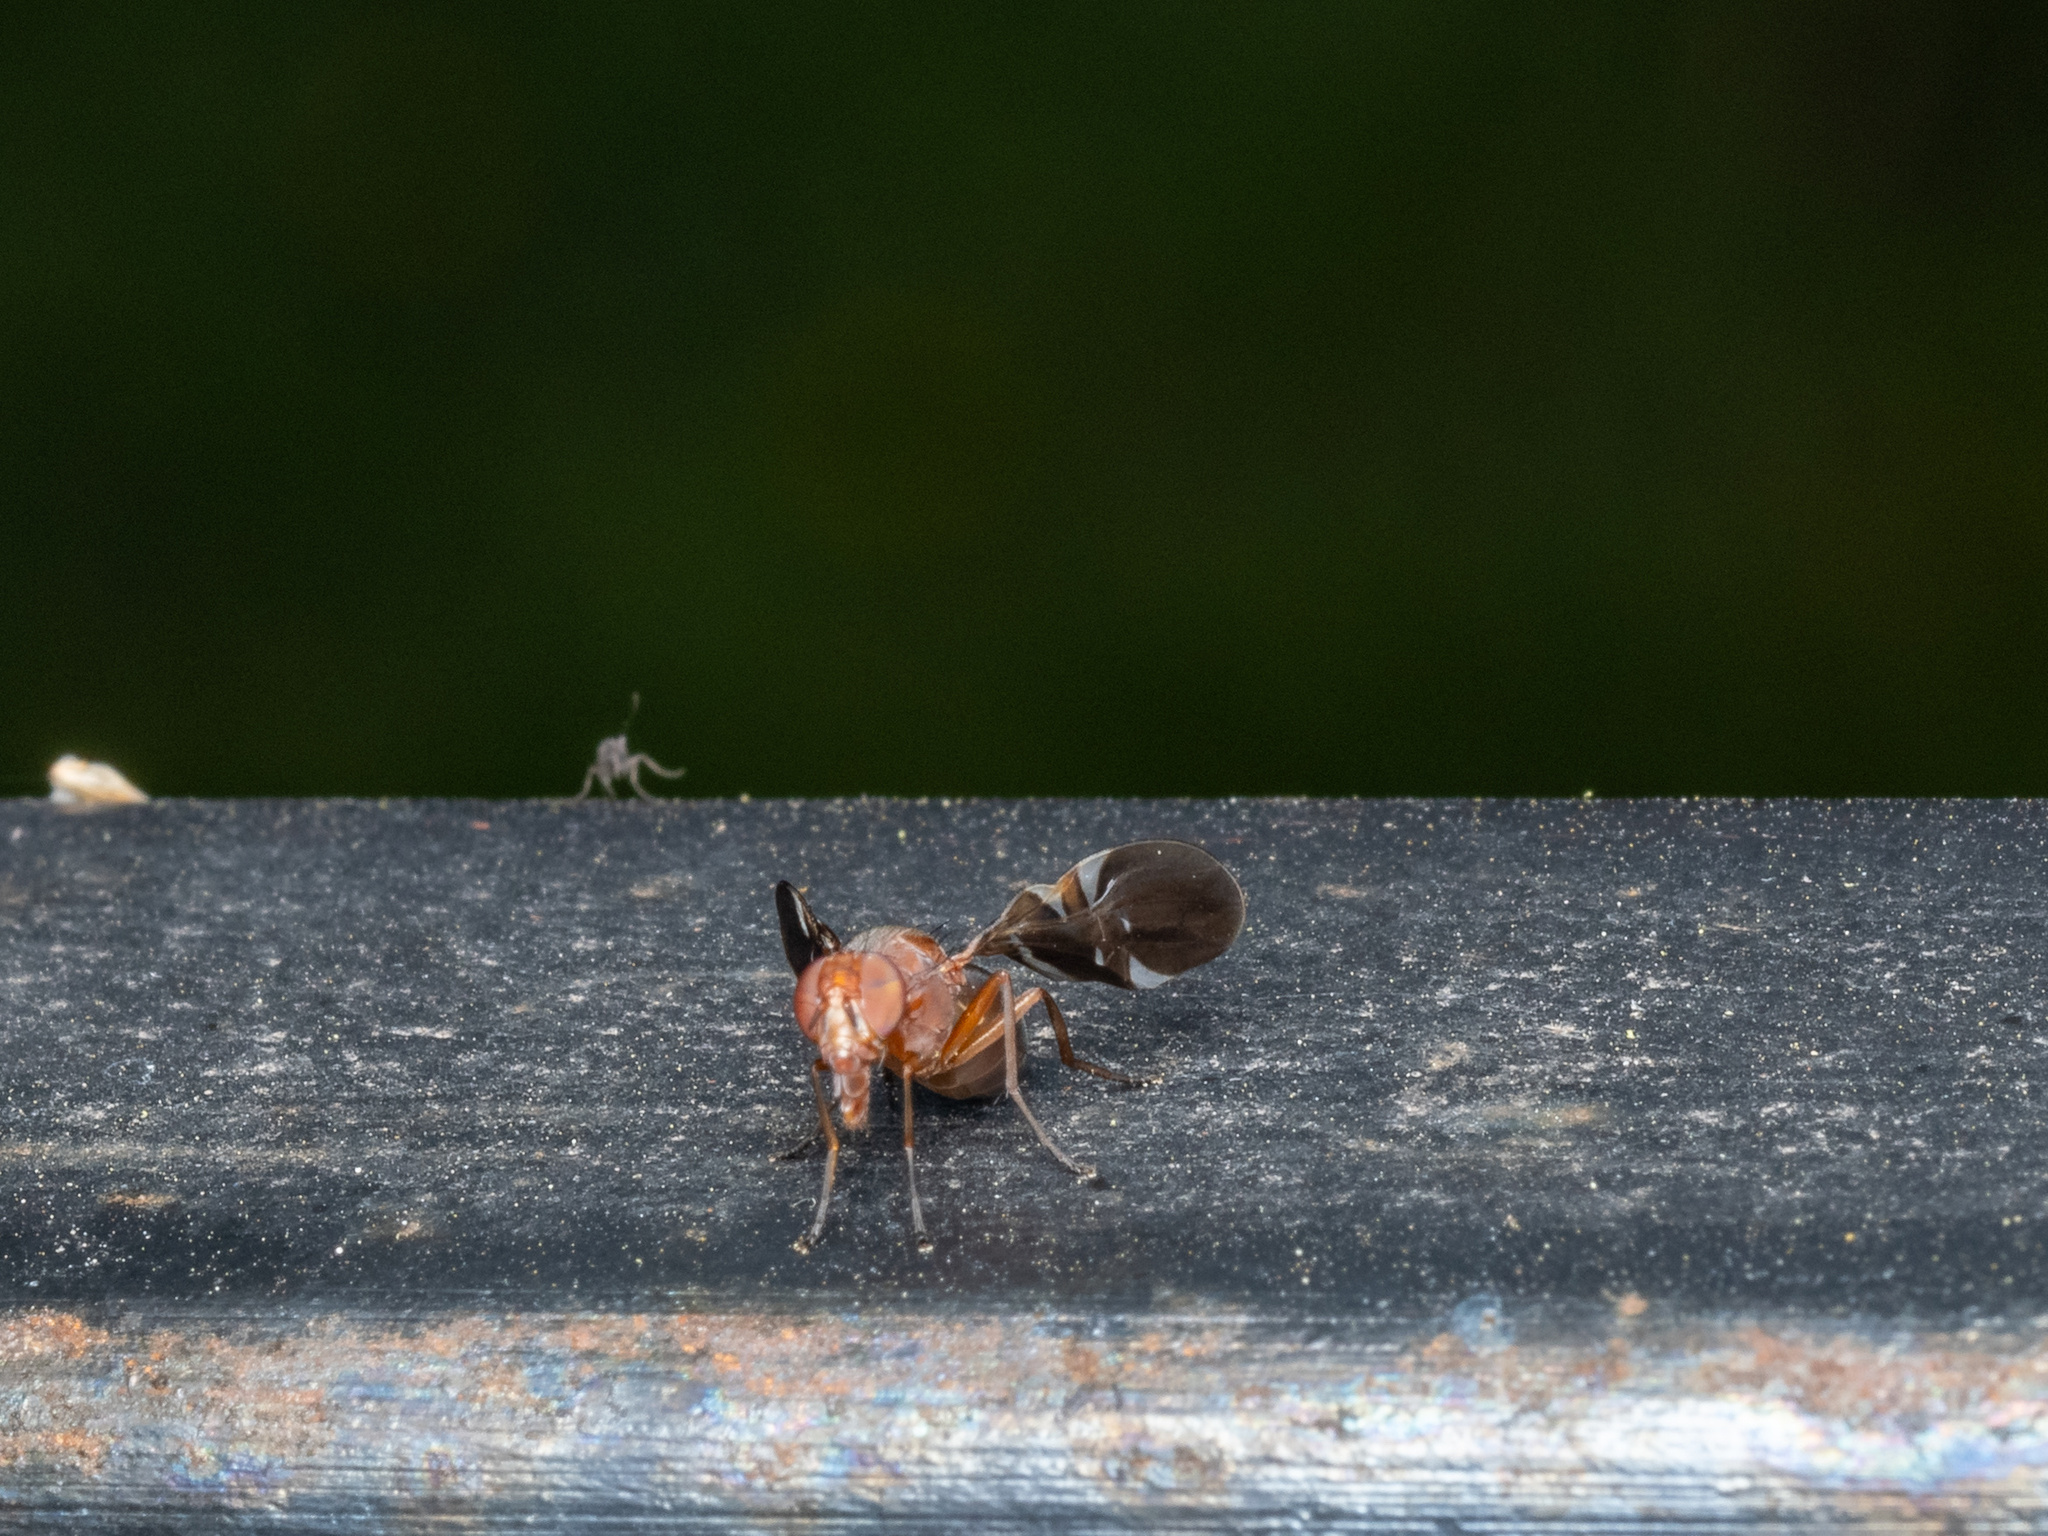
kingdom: Animalia
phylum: Arthropoda
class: Insecta
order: Diptera
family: Ulidiidae
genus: Delphinia
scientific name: Delphinia picta
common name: Common picture-winged fly
